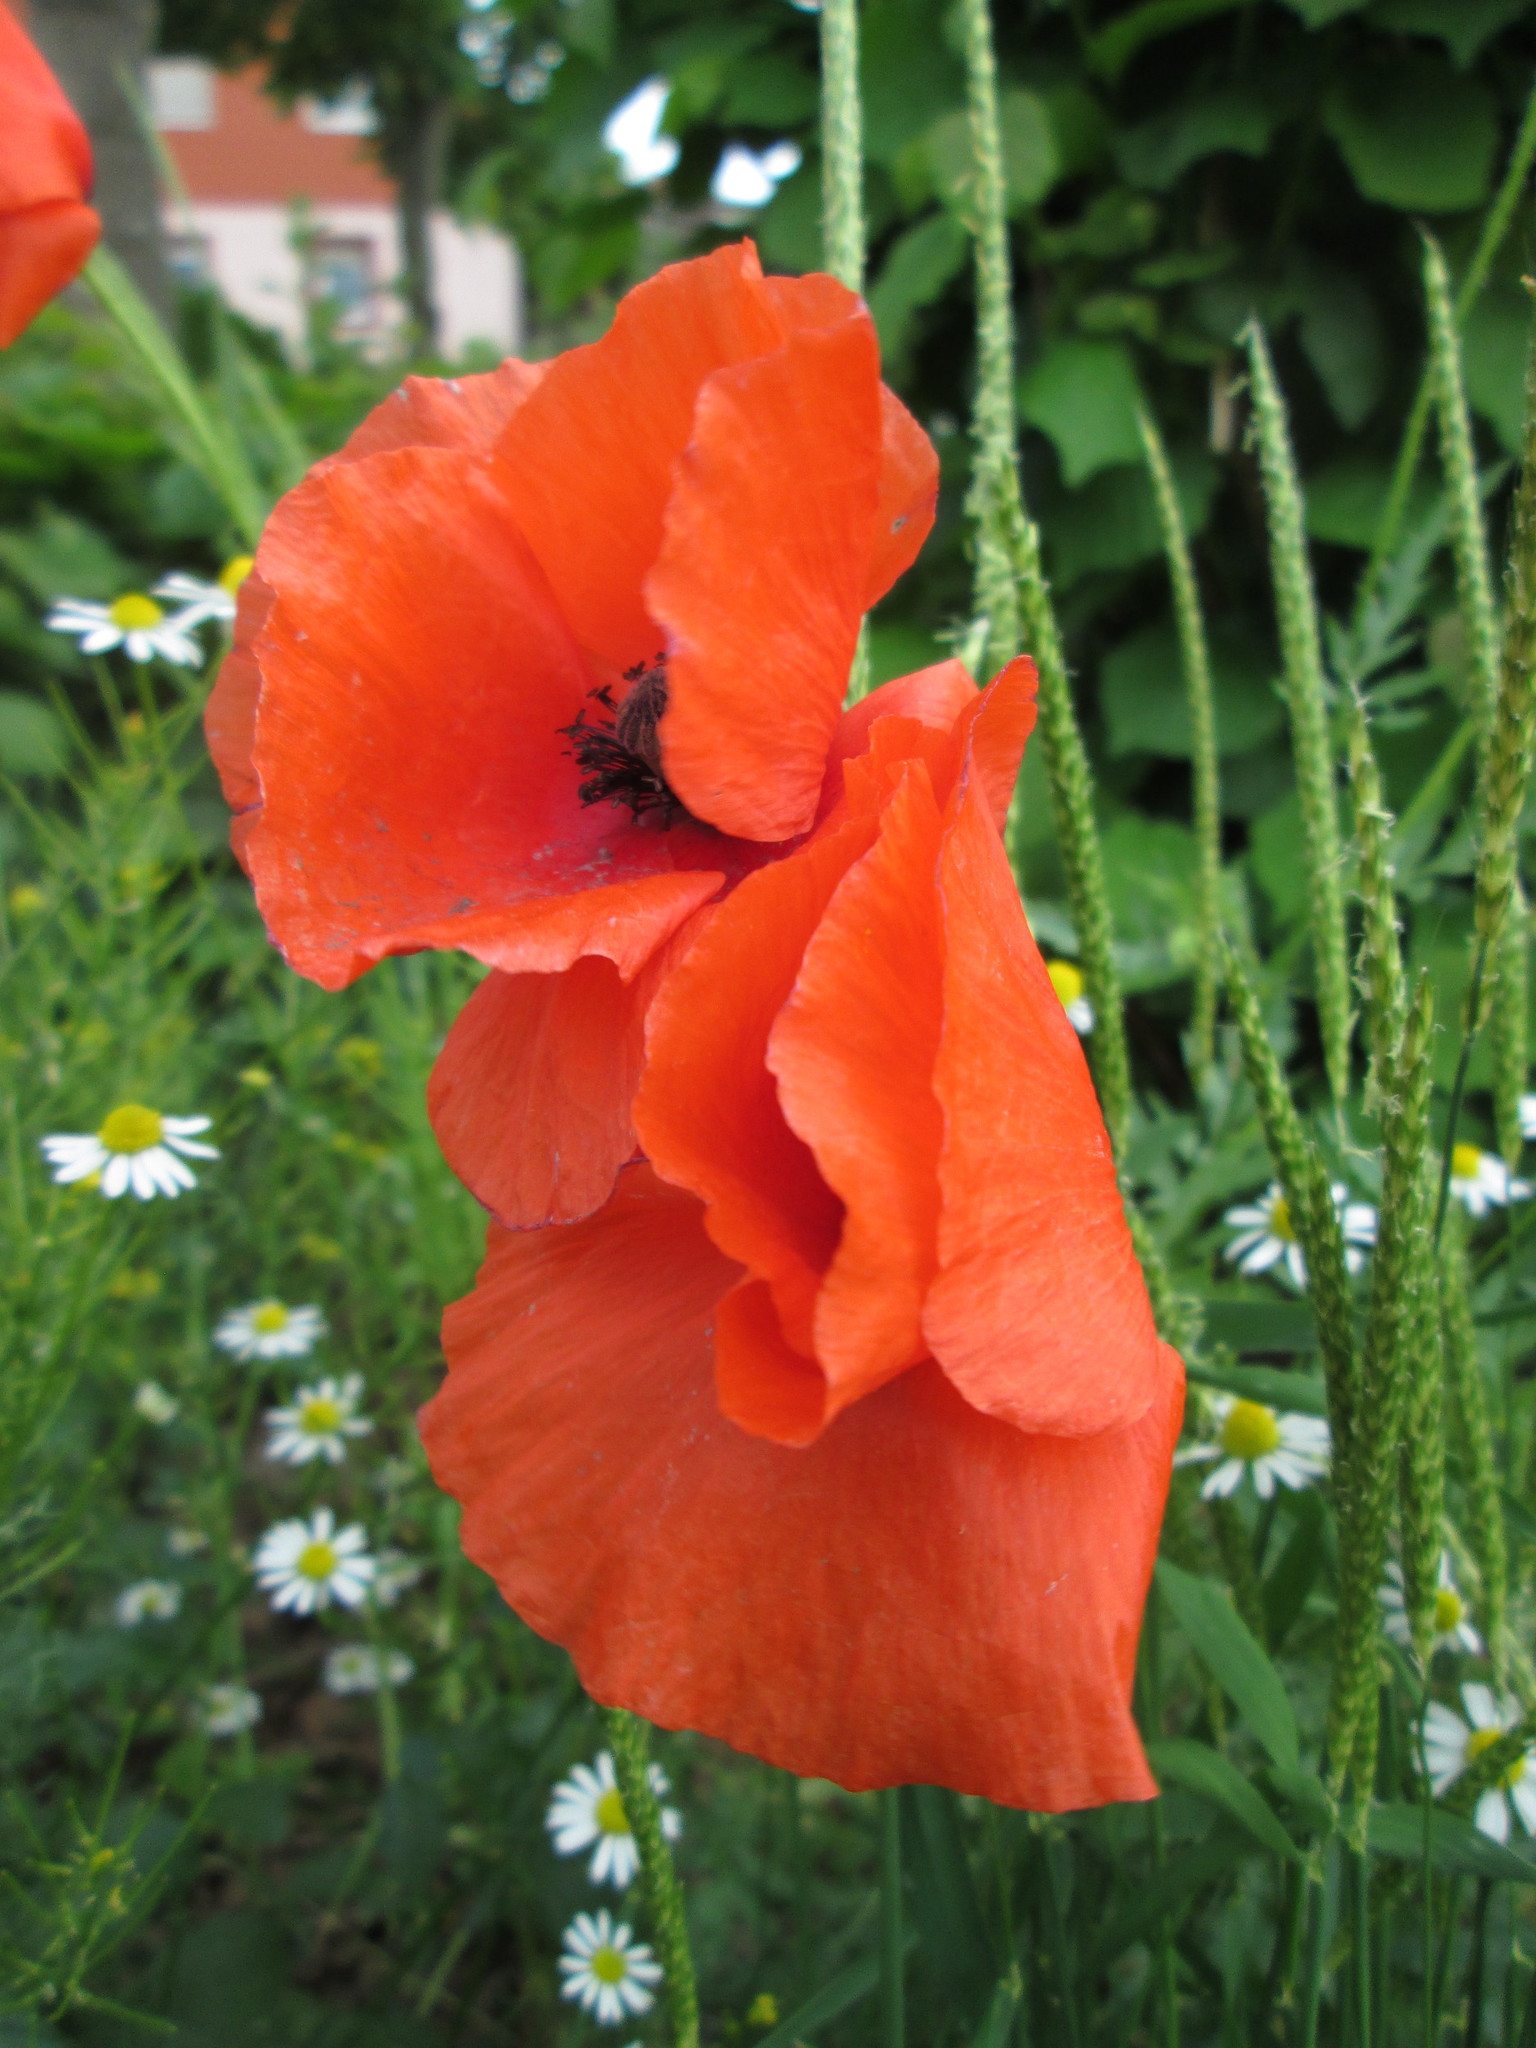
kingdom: Plantae
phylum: Tracheophyta
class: Magnoliopsida
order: Ranunculales
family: Papaveraceae
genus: Papaver
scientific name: Papaver rhoeas
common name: Corn poppy
